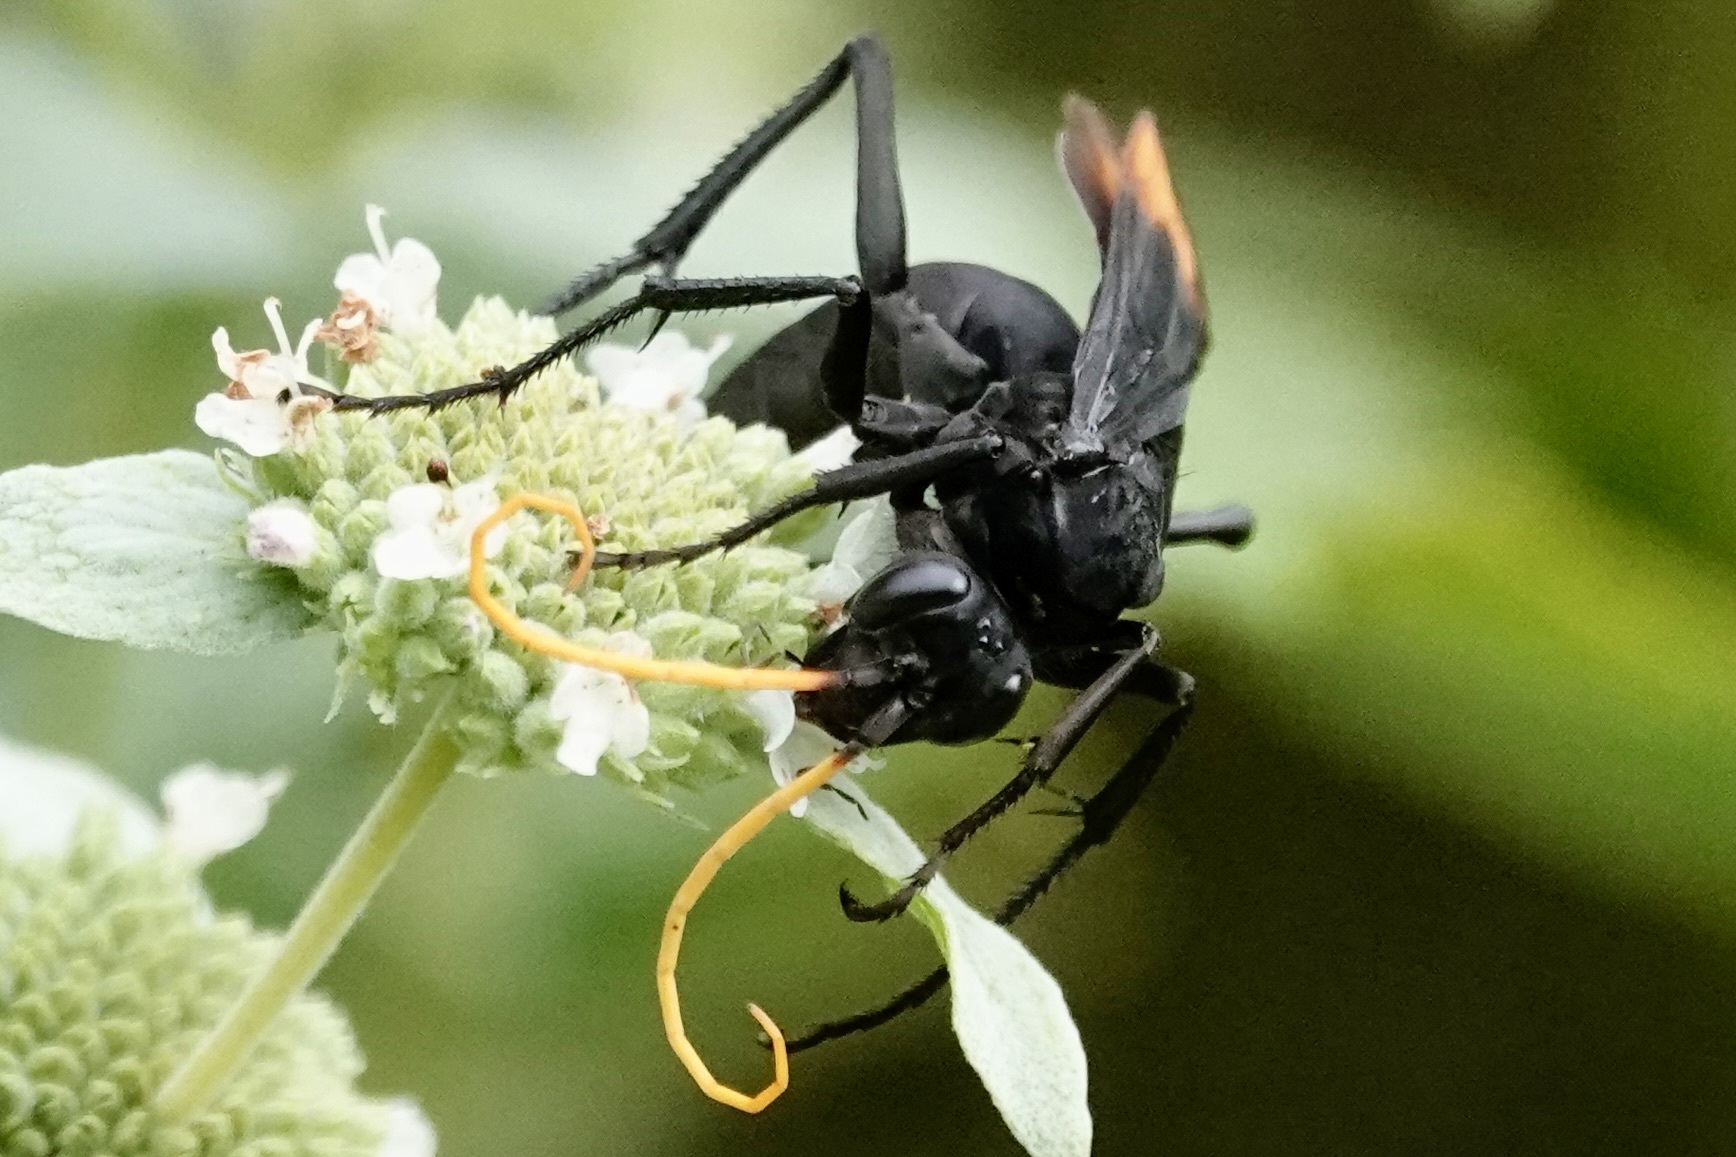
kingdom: Animalia
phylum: Arthropoda
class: Insecta
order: Hymenoptera
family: Pompilidae
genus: Entypus
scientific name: Entypus unifasciatus
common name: Eastern tawny-horned spider wasp
